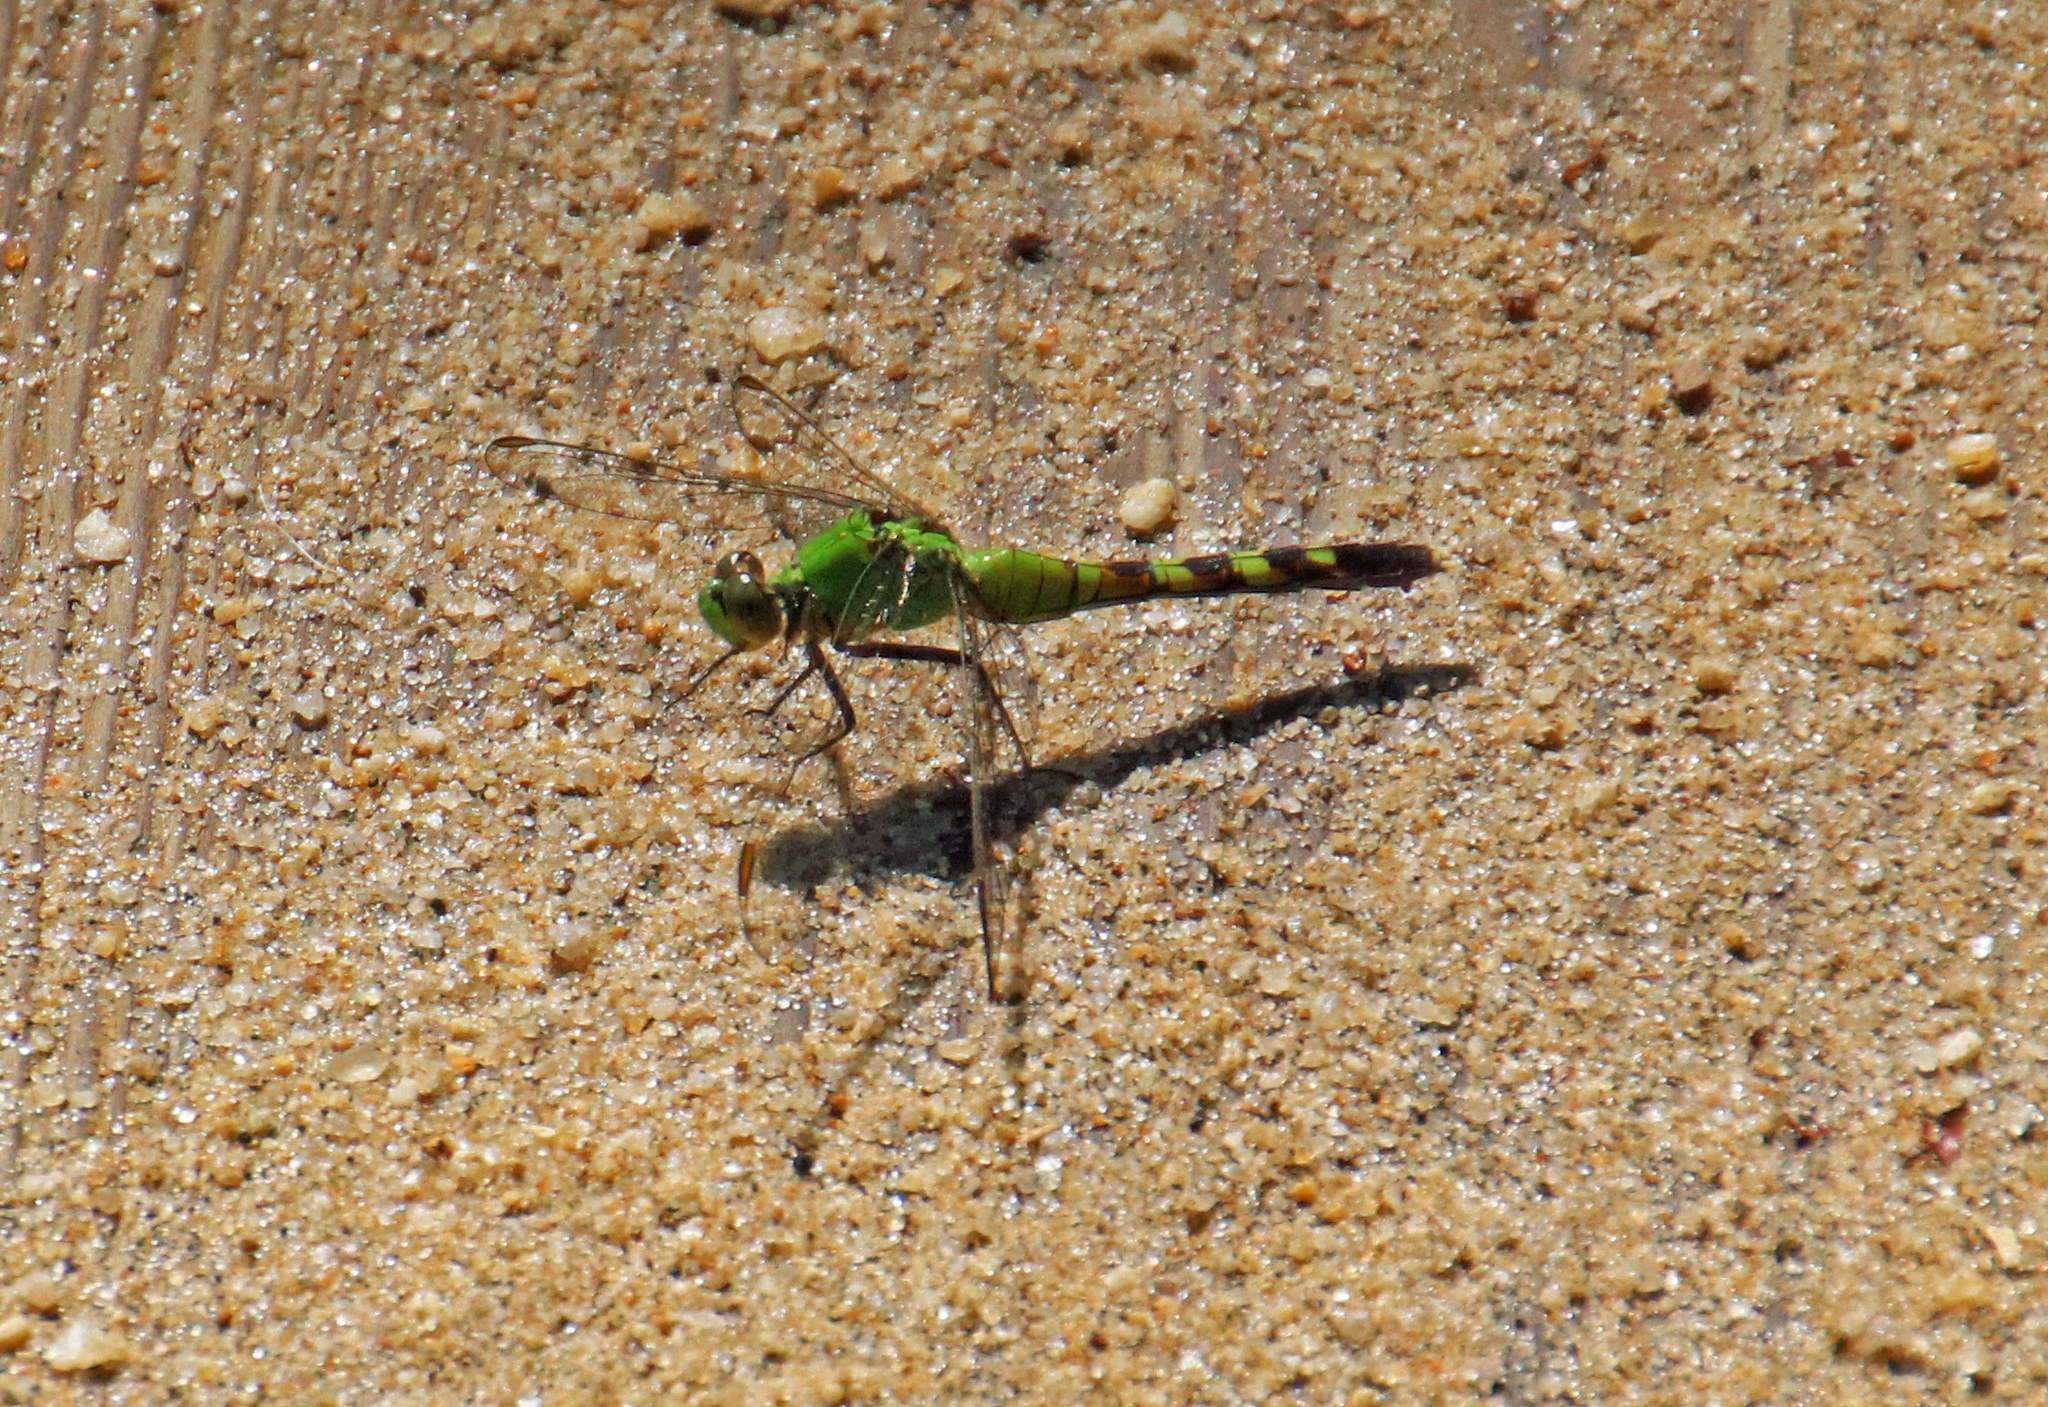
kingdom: Animalia
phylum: Arthropoda
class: Insecta
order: Odonata
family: Libellulidae
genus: Erythemis
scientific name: Erythemis simplicicollis
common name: Eastern pondhawk
